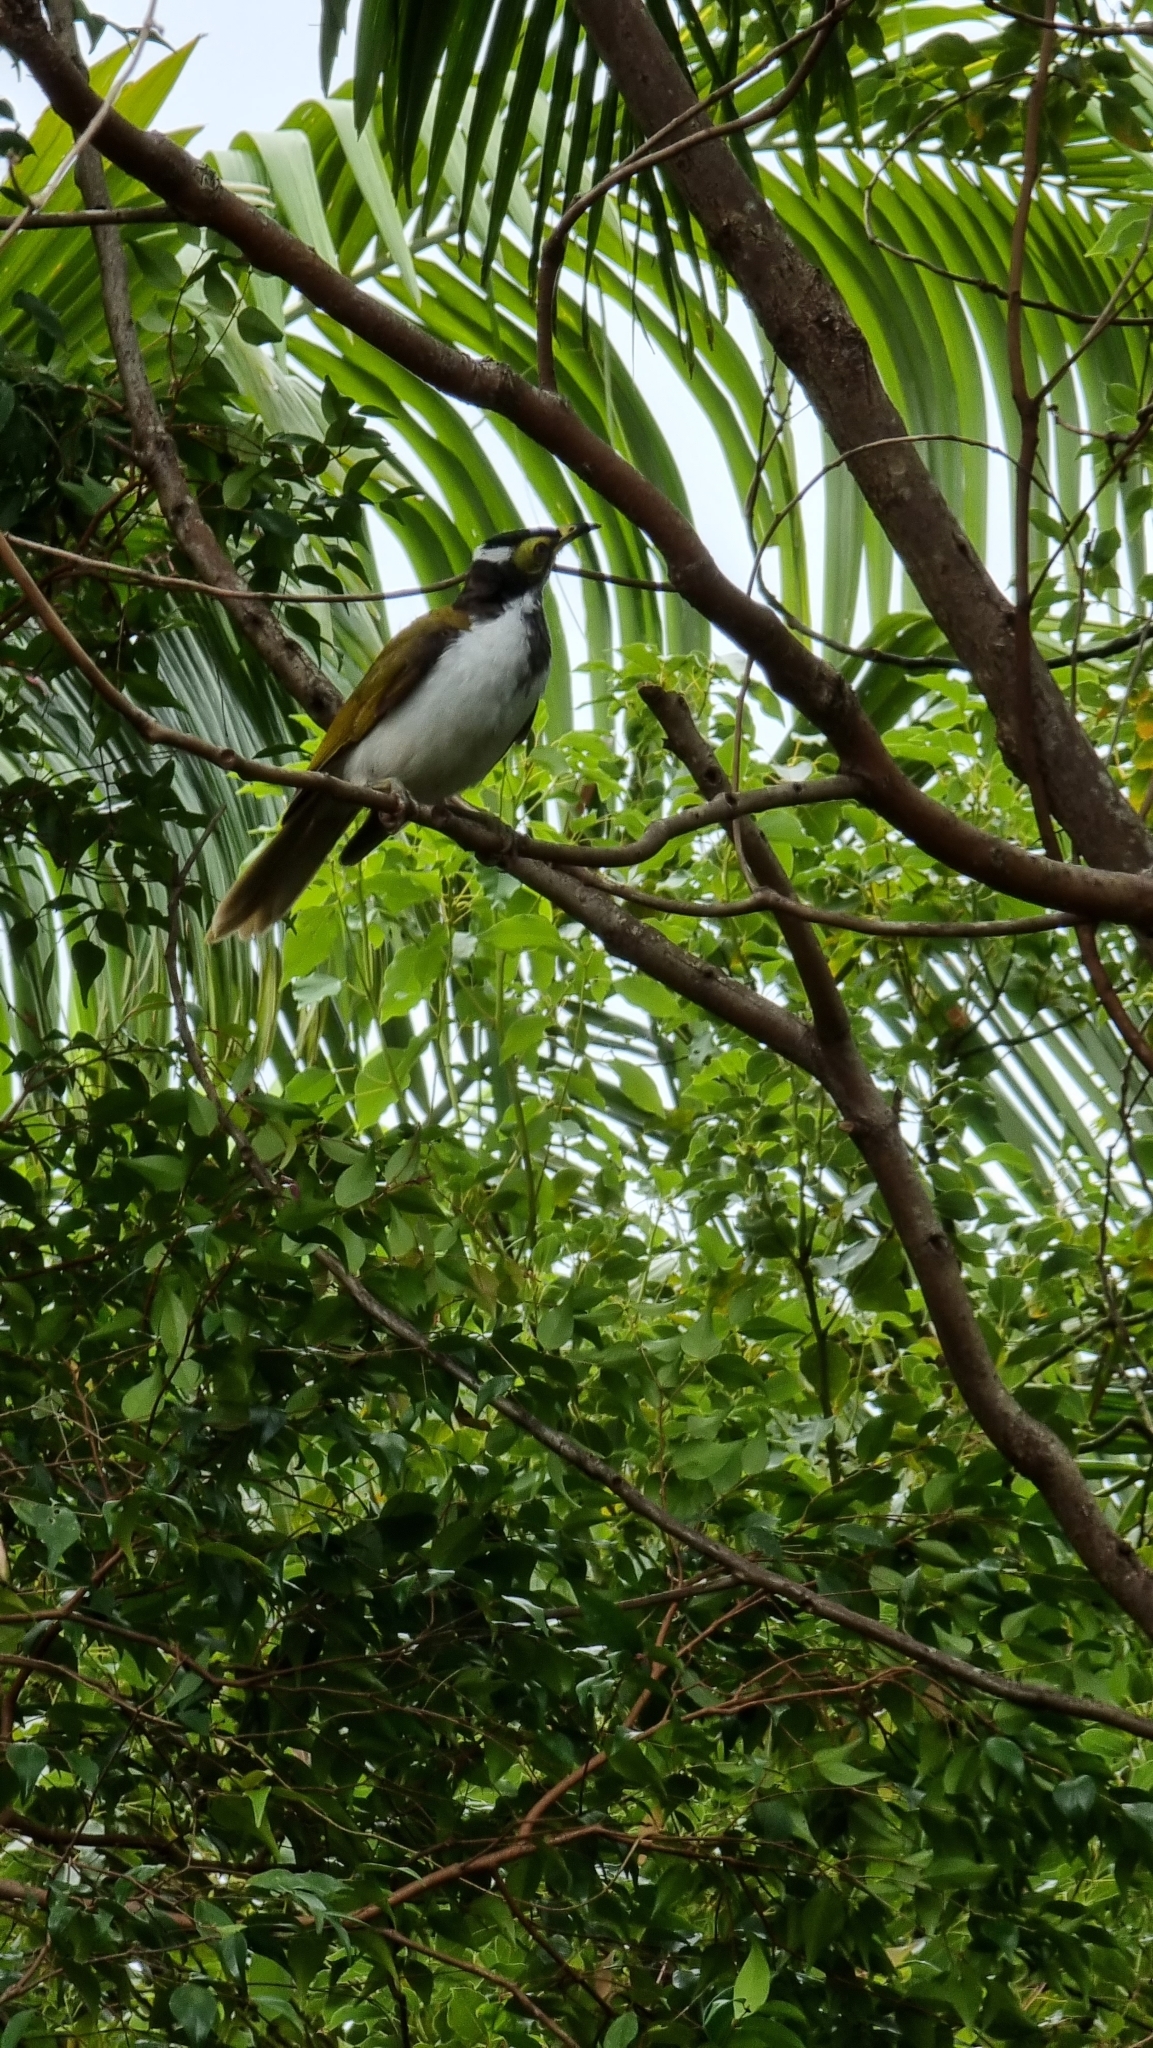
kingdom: Animalia
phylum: Chordata
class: Aves
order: Passeriformes
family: Meliphagidae
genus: Entomyzon
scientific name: Entomyzon cyanotis
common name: Blue-faced honeyeater
